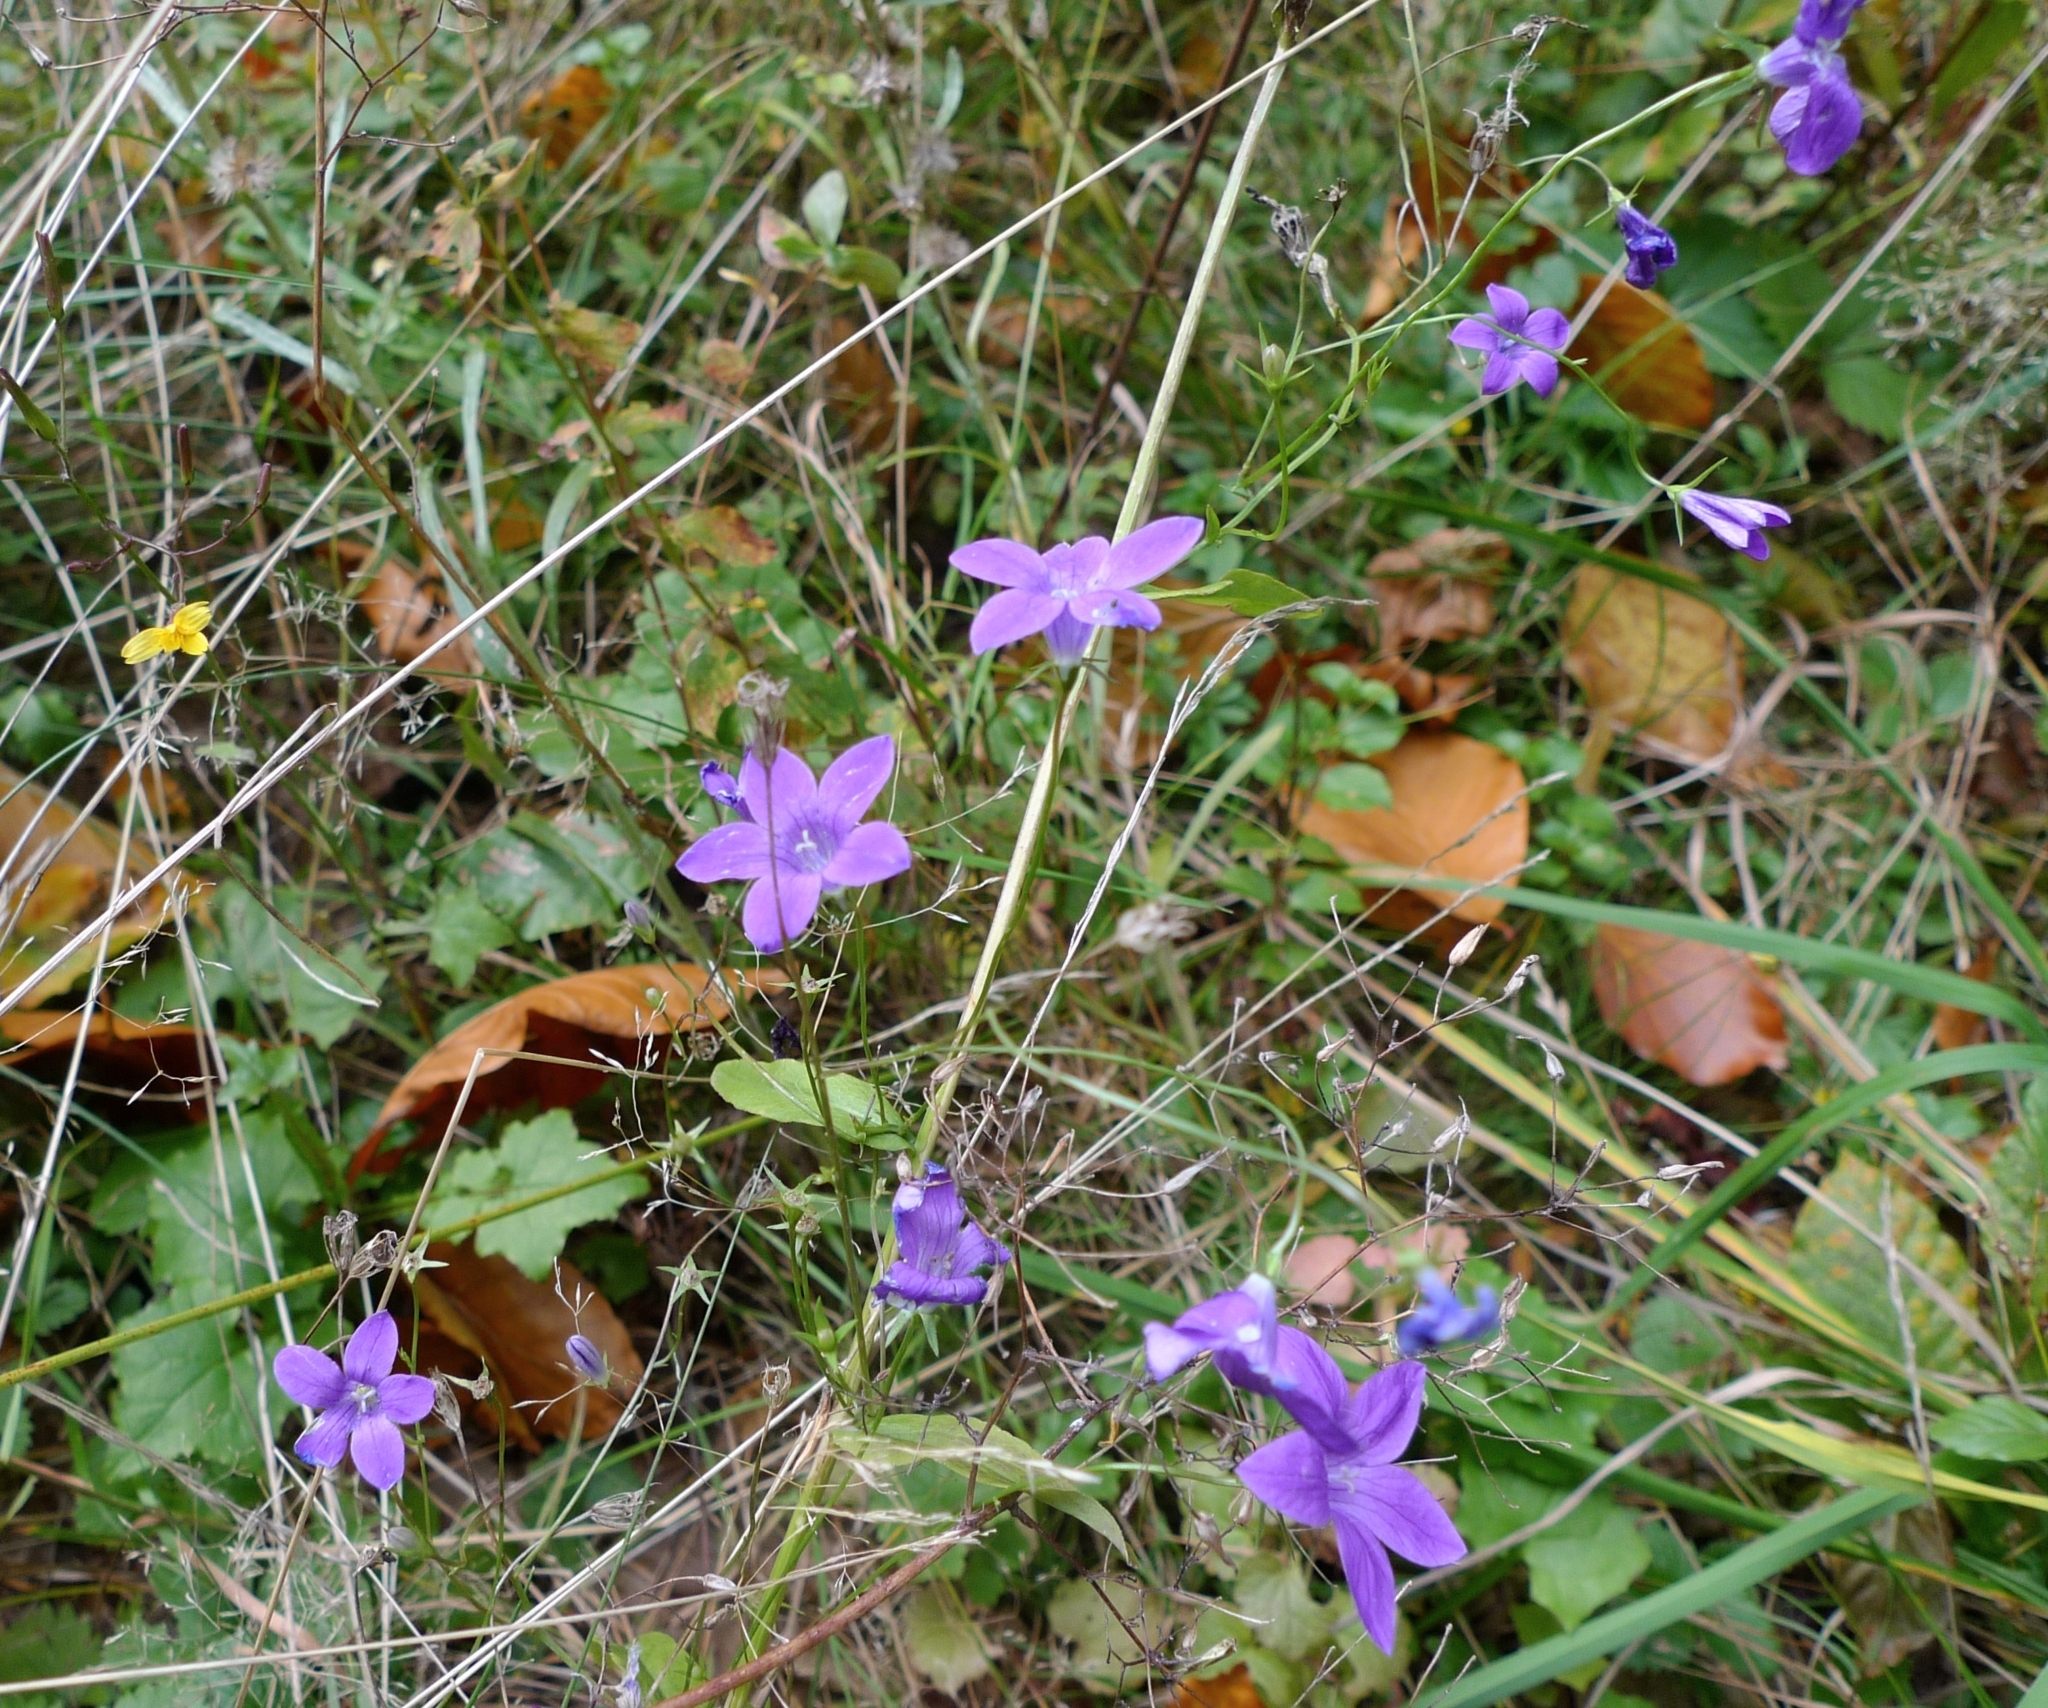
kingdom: Plantae
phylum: Tracheophyta
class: Magnoliopsida
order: Asterales
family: Campanulaceae
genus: Campanula
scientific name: Campanula patula
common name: Spreading bellflower
